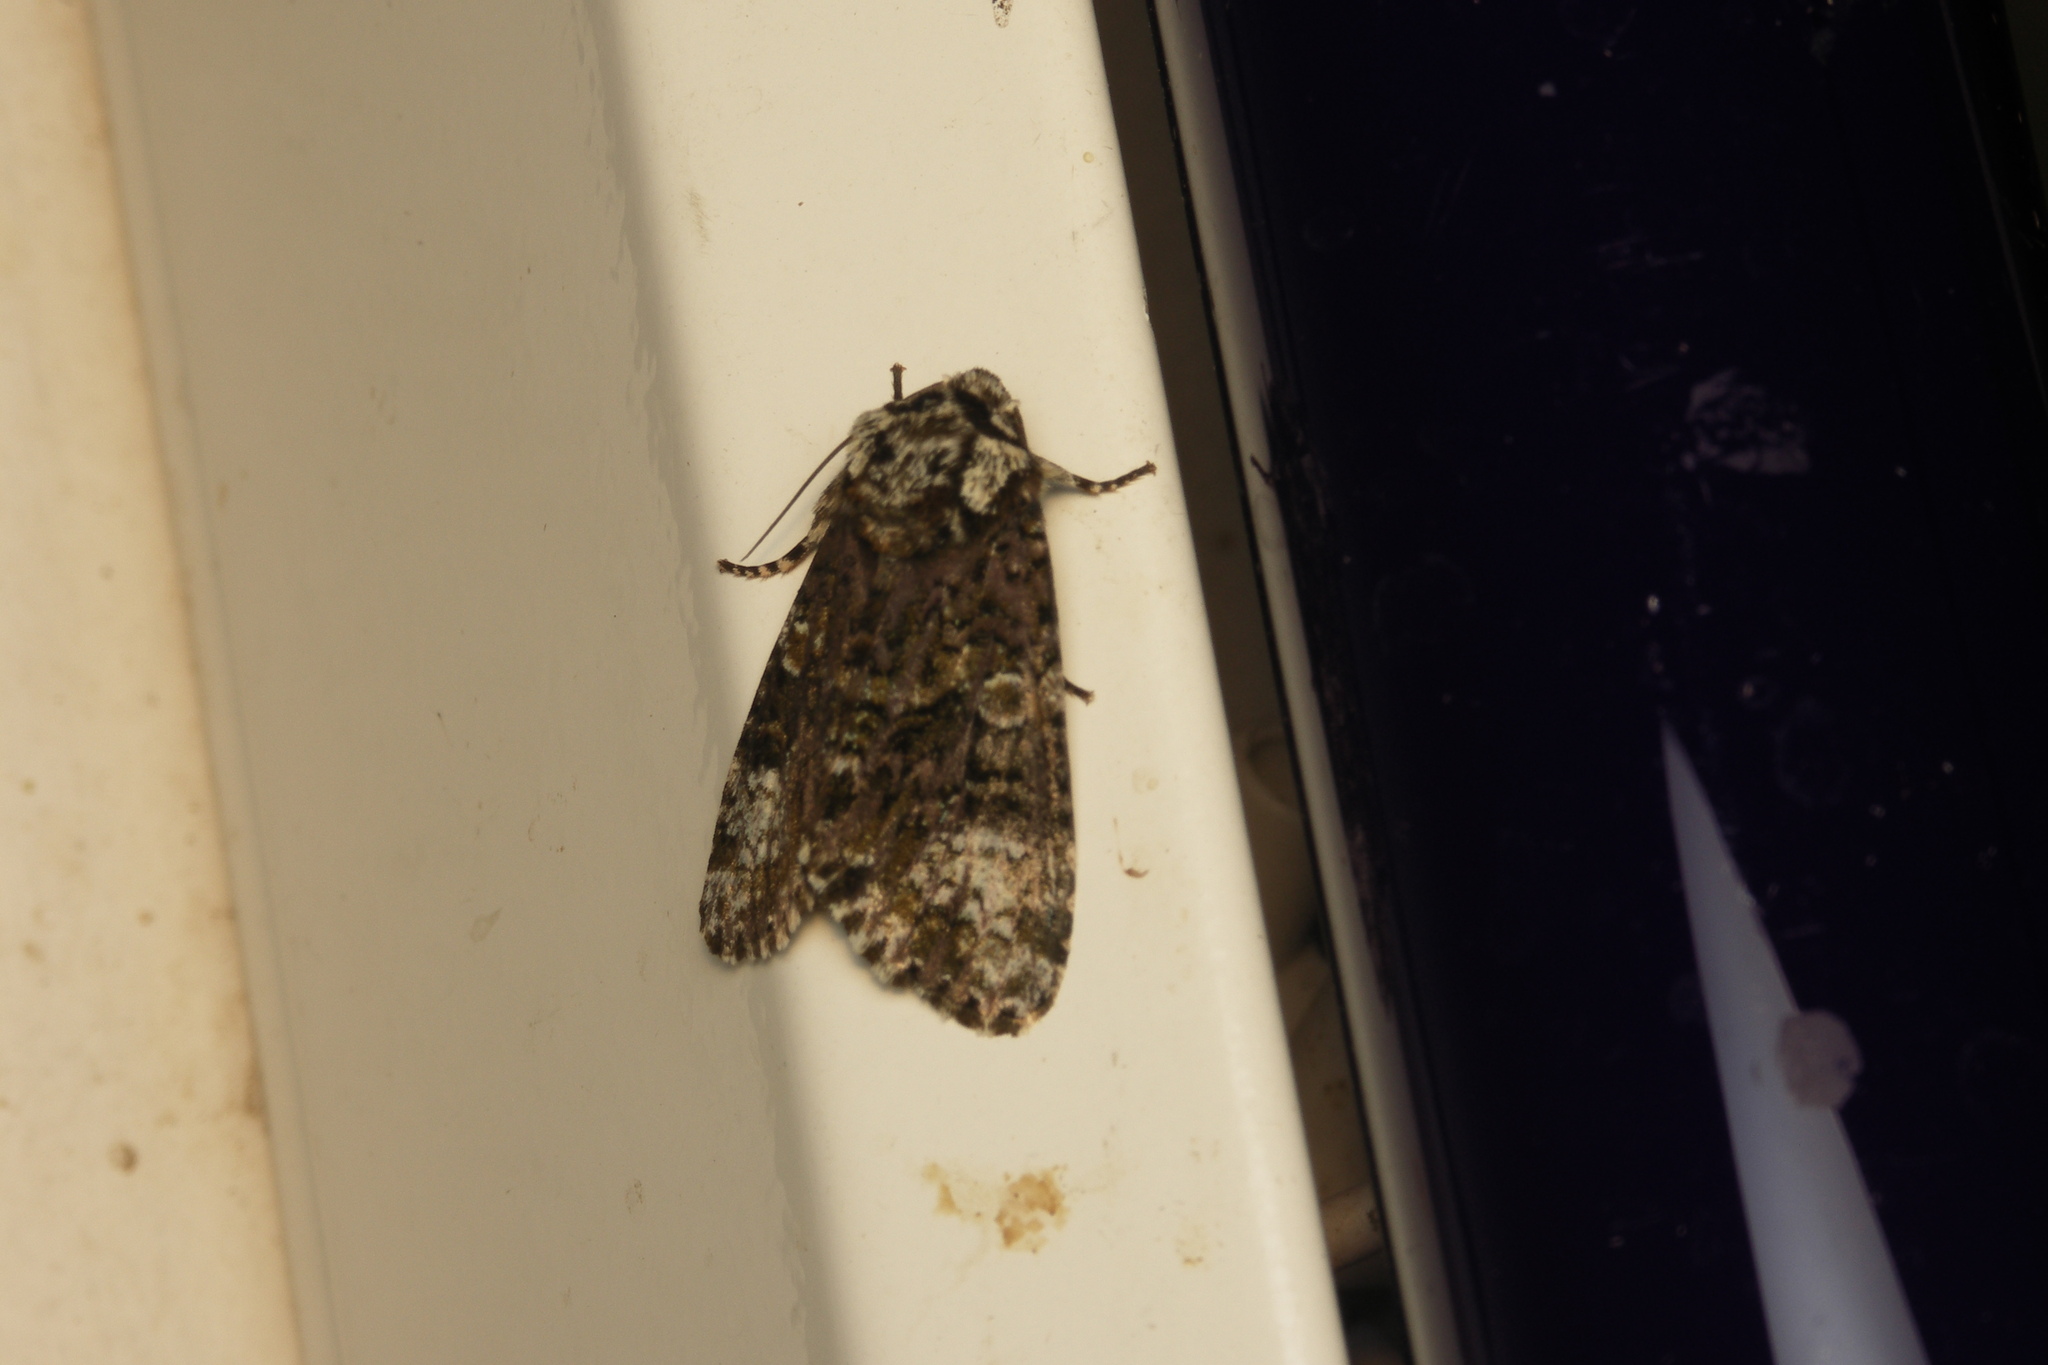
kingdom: Animalia
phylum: Arthropoda
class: Insecta
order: Lepidoptera
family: Noctuidae
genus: Craniophora
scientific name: Craniophora ligustri
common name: Coronet
